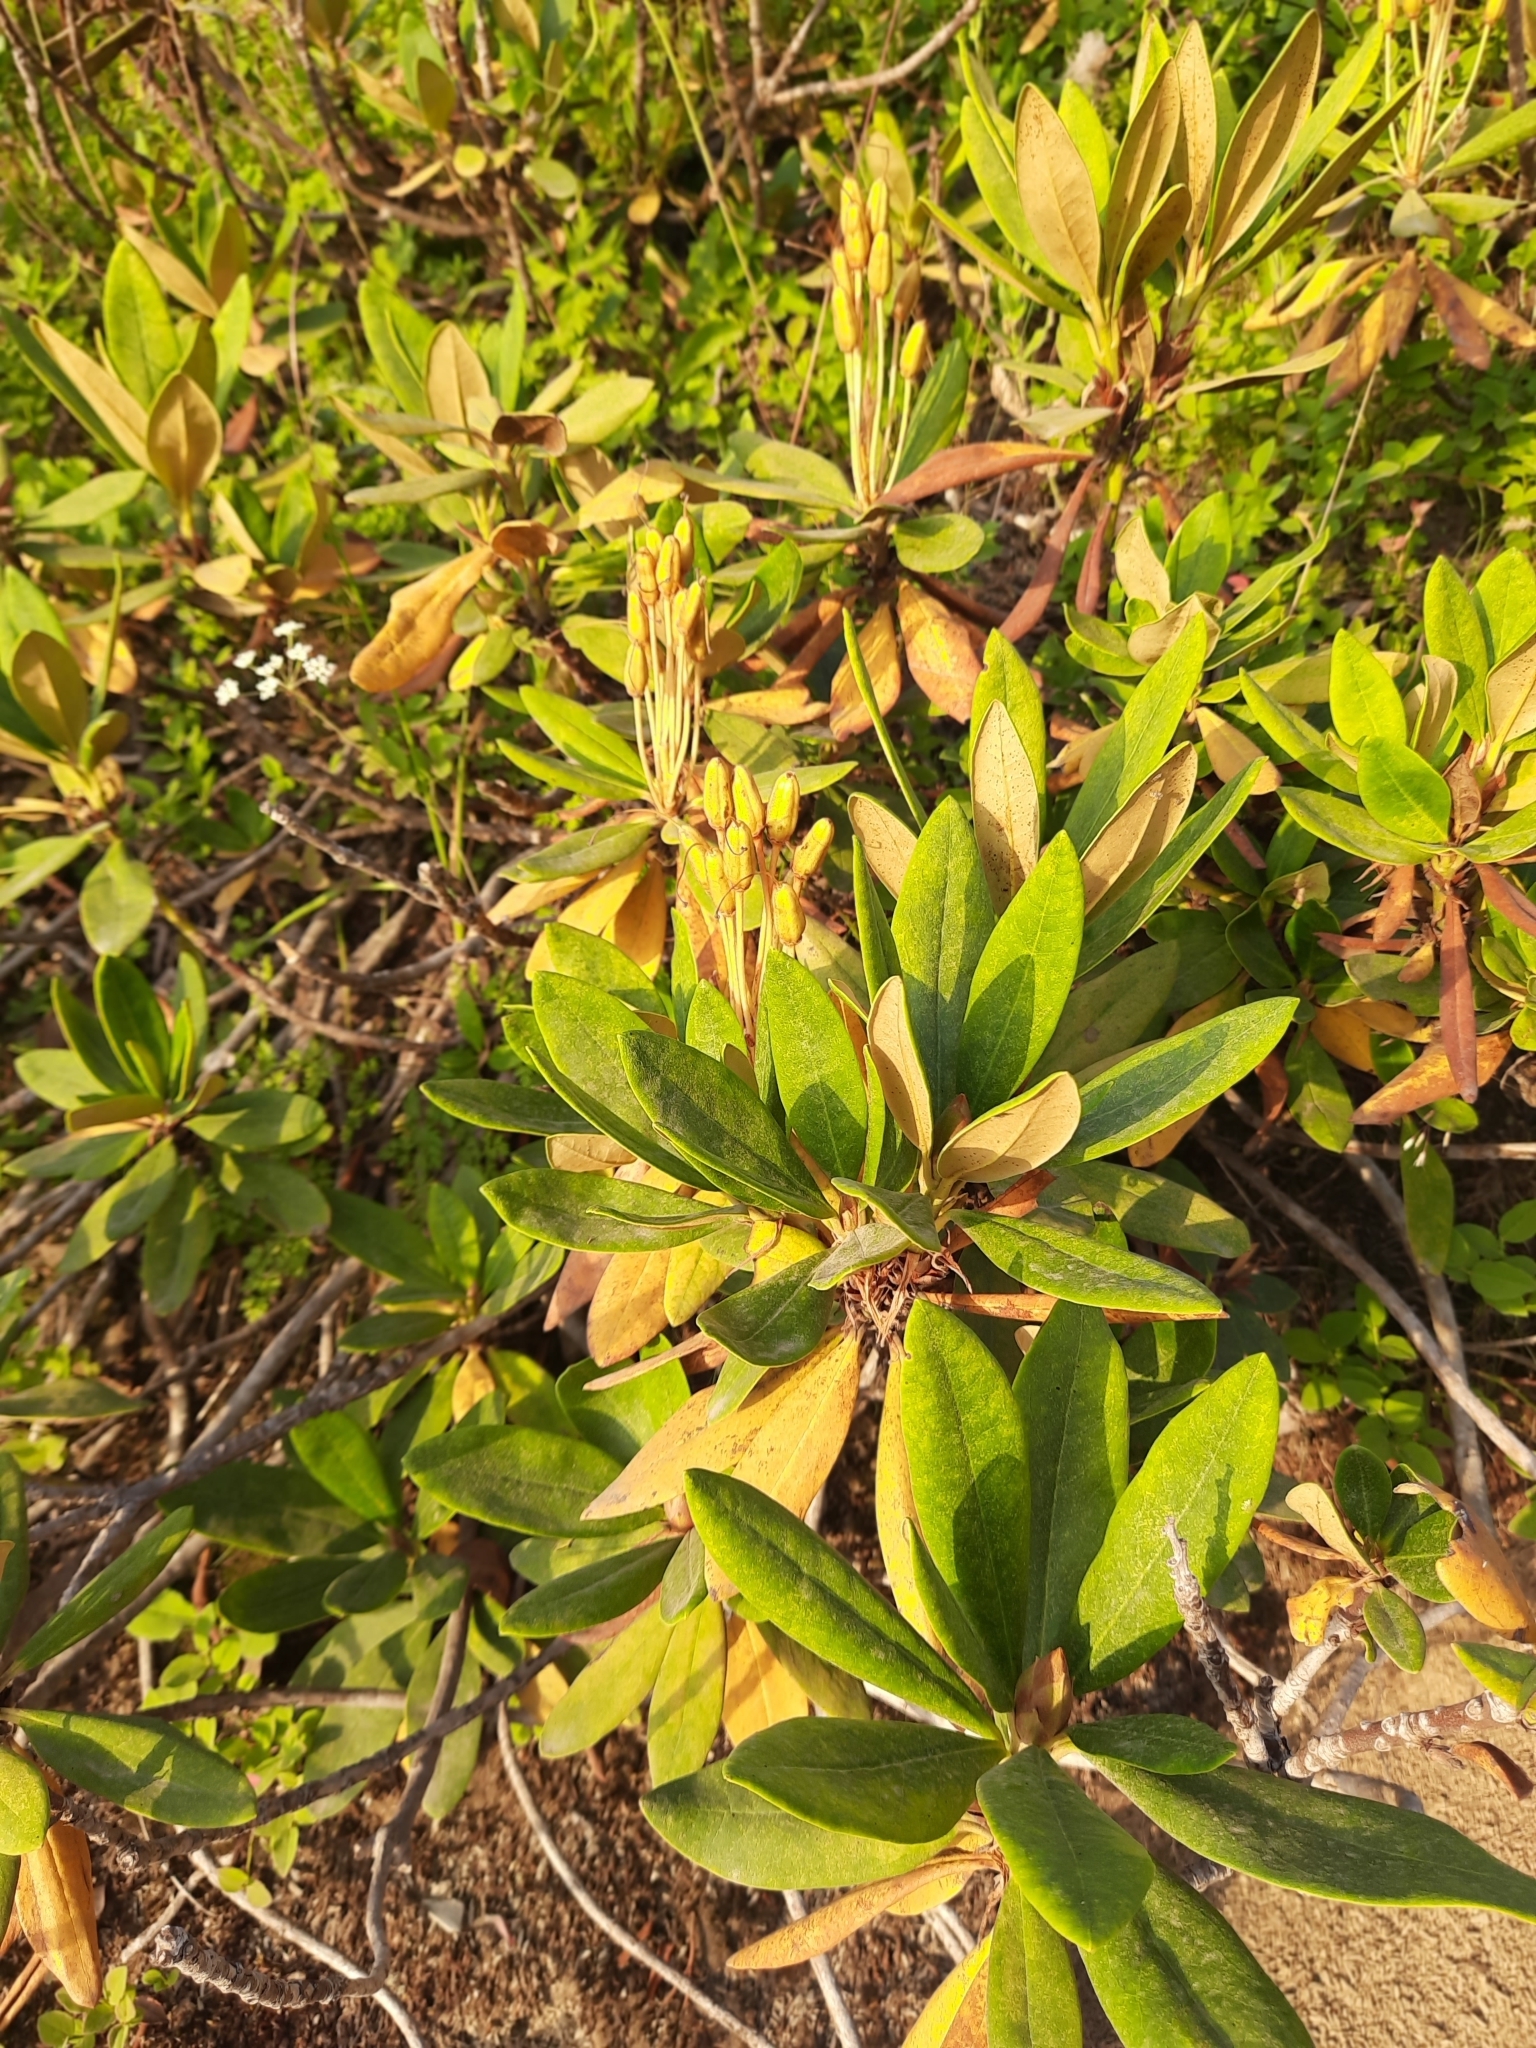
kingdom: Plantae
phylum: Tracheophyta
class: Magnoliopsida
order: Ericales
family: Ericaceae
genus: Rhododendron
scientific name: Rhododendron caucasicum
